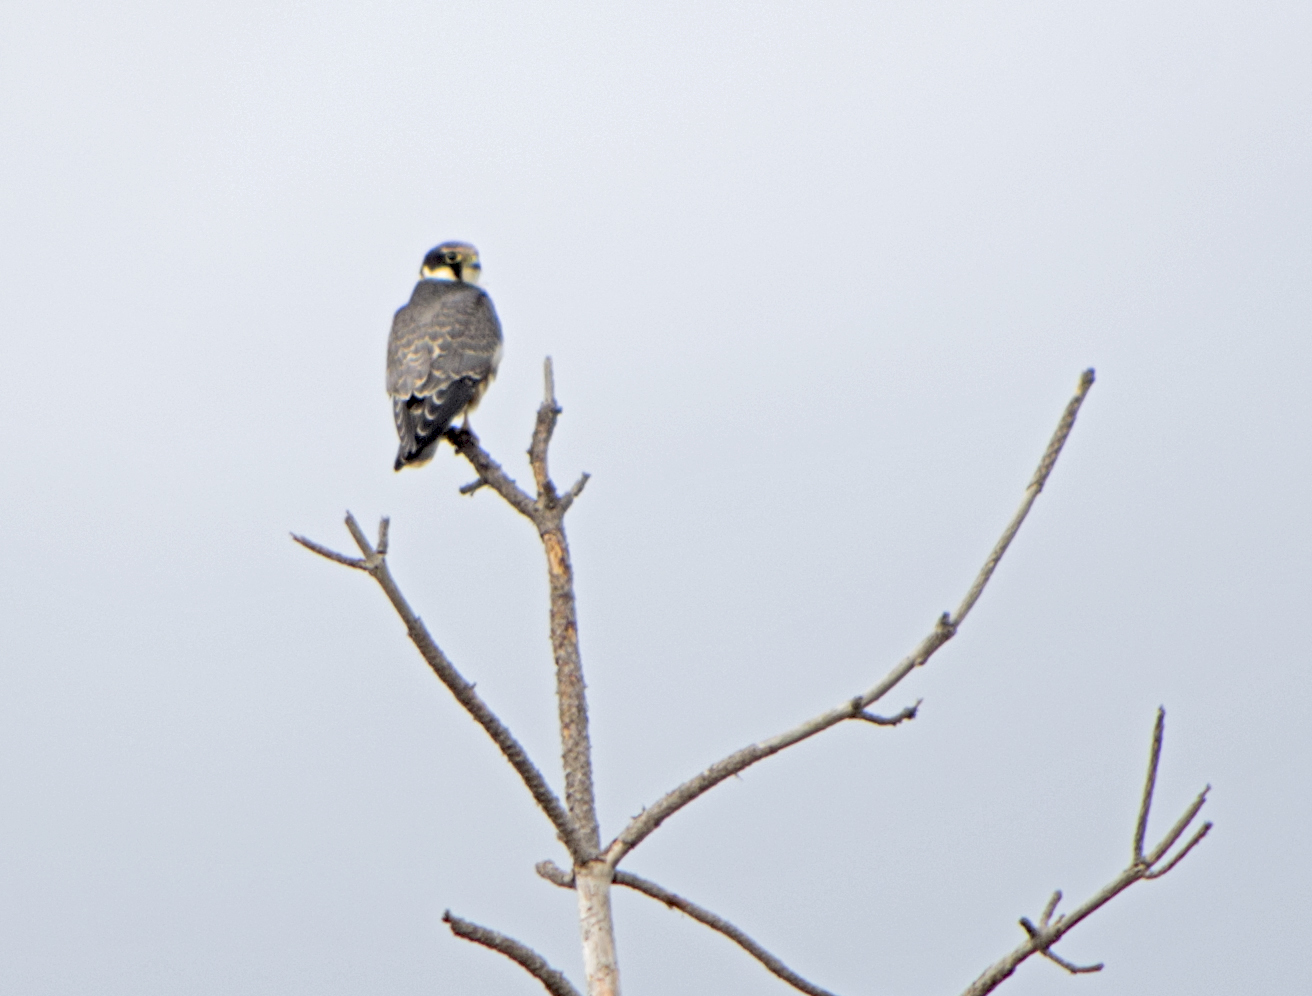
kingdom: Animalia
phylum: Chordata
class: Aves
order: Falconiformes
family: Falconidae
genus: Falco
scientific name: Falco subbuteo
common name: Eurasian hobby
